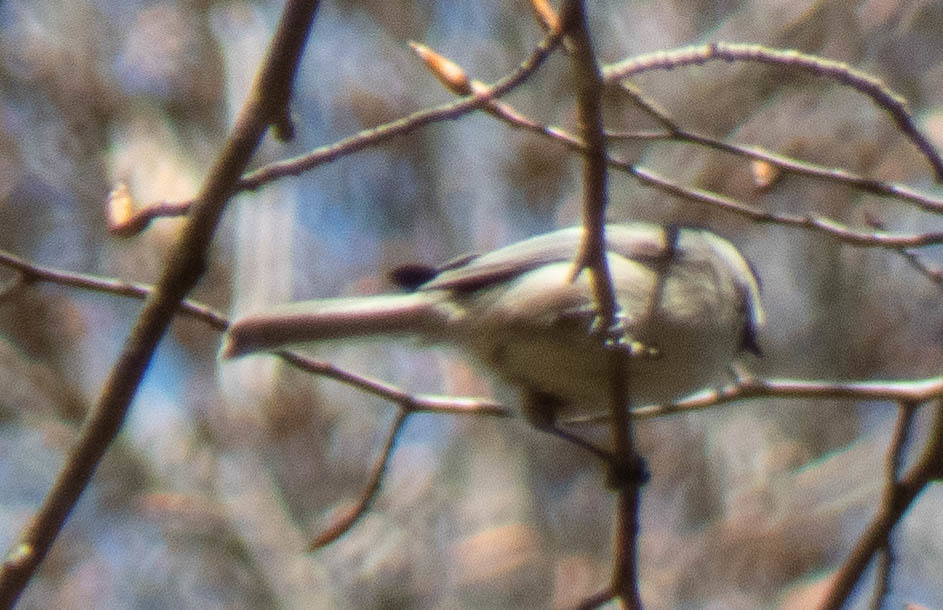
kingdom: Animalia
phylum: Chordata
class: Aves
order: Passeriformes
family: Paridae
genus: Poecile
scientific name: Poecile carolinensis
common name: Carolina chickadee
